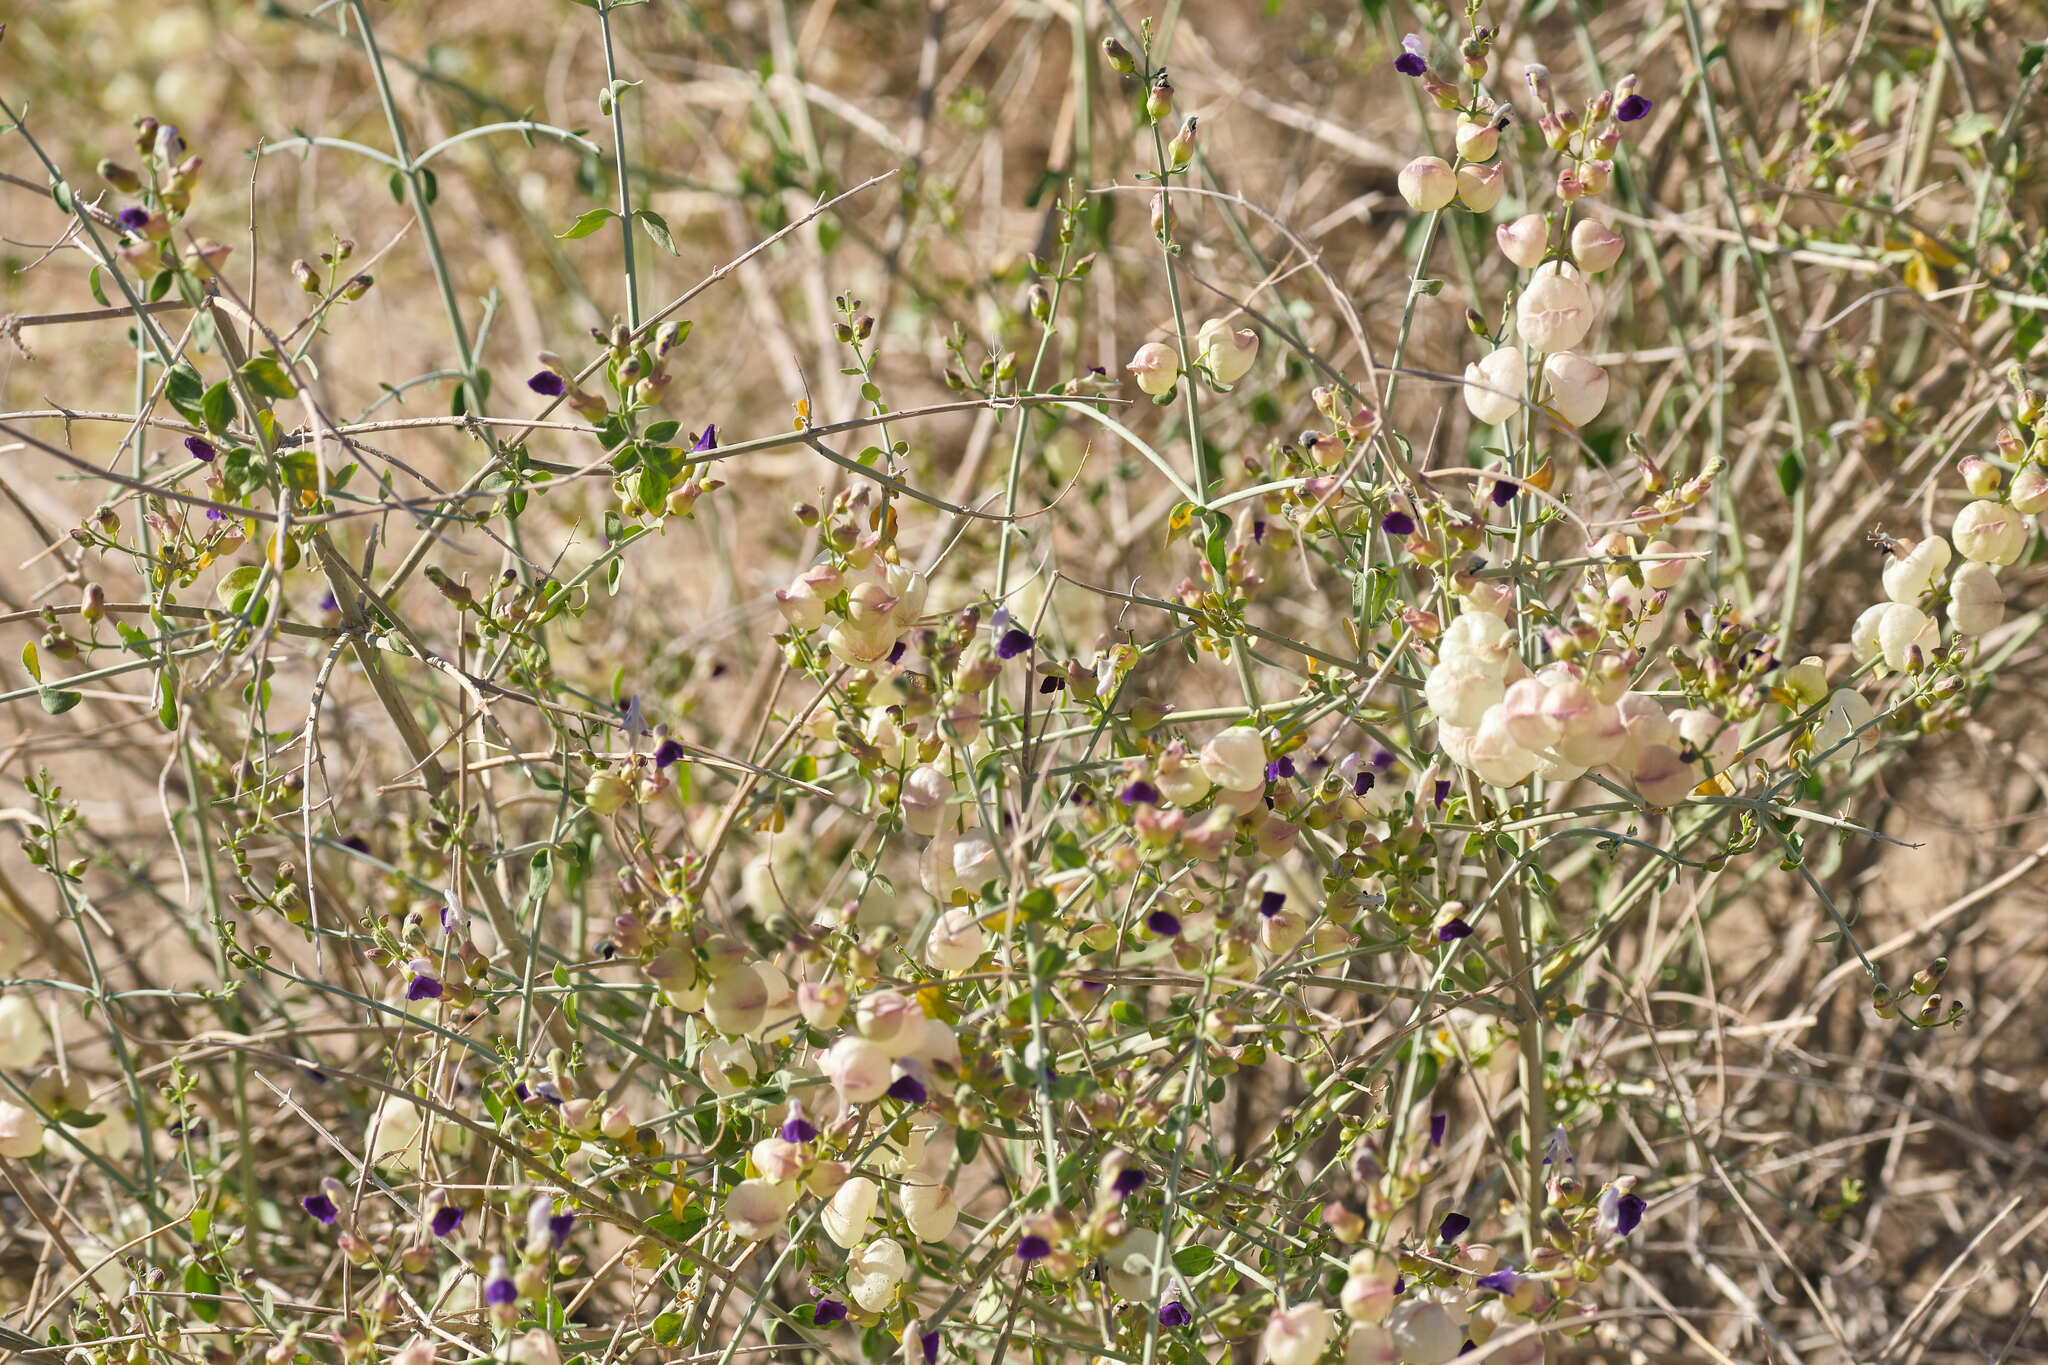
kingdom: Plantae
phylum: Tracheophyta
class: Magnoliopsida
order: Lamiales
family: Lamiaceae
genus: Scutellaria
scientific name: Scutellaria mexicana
